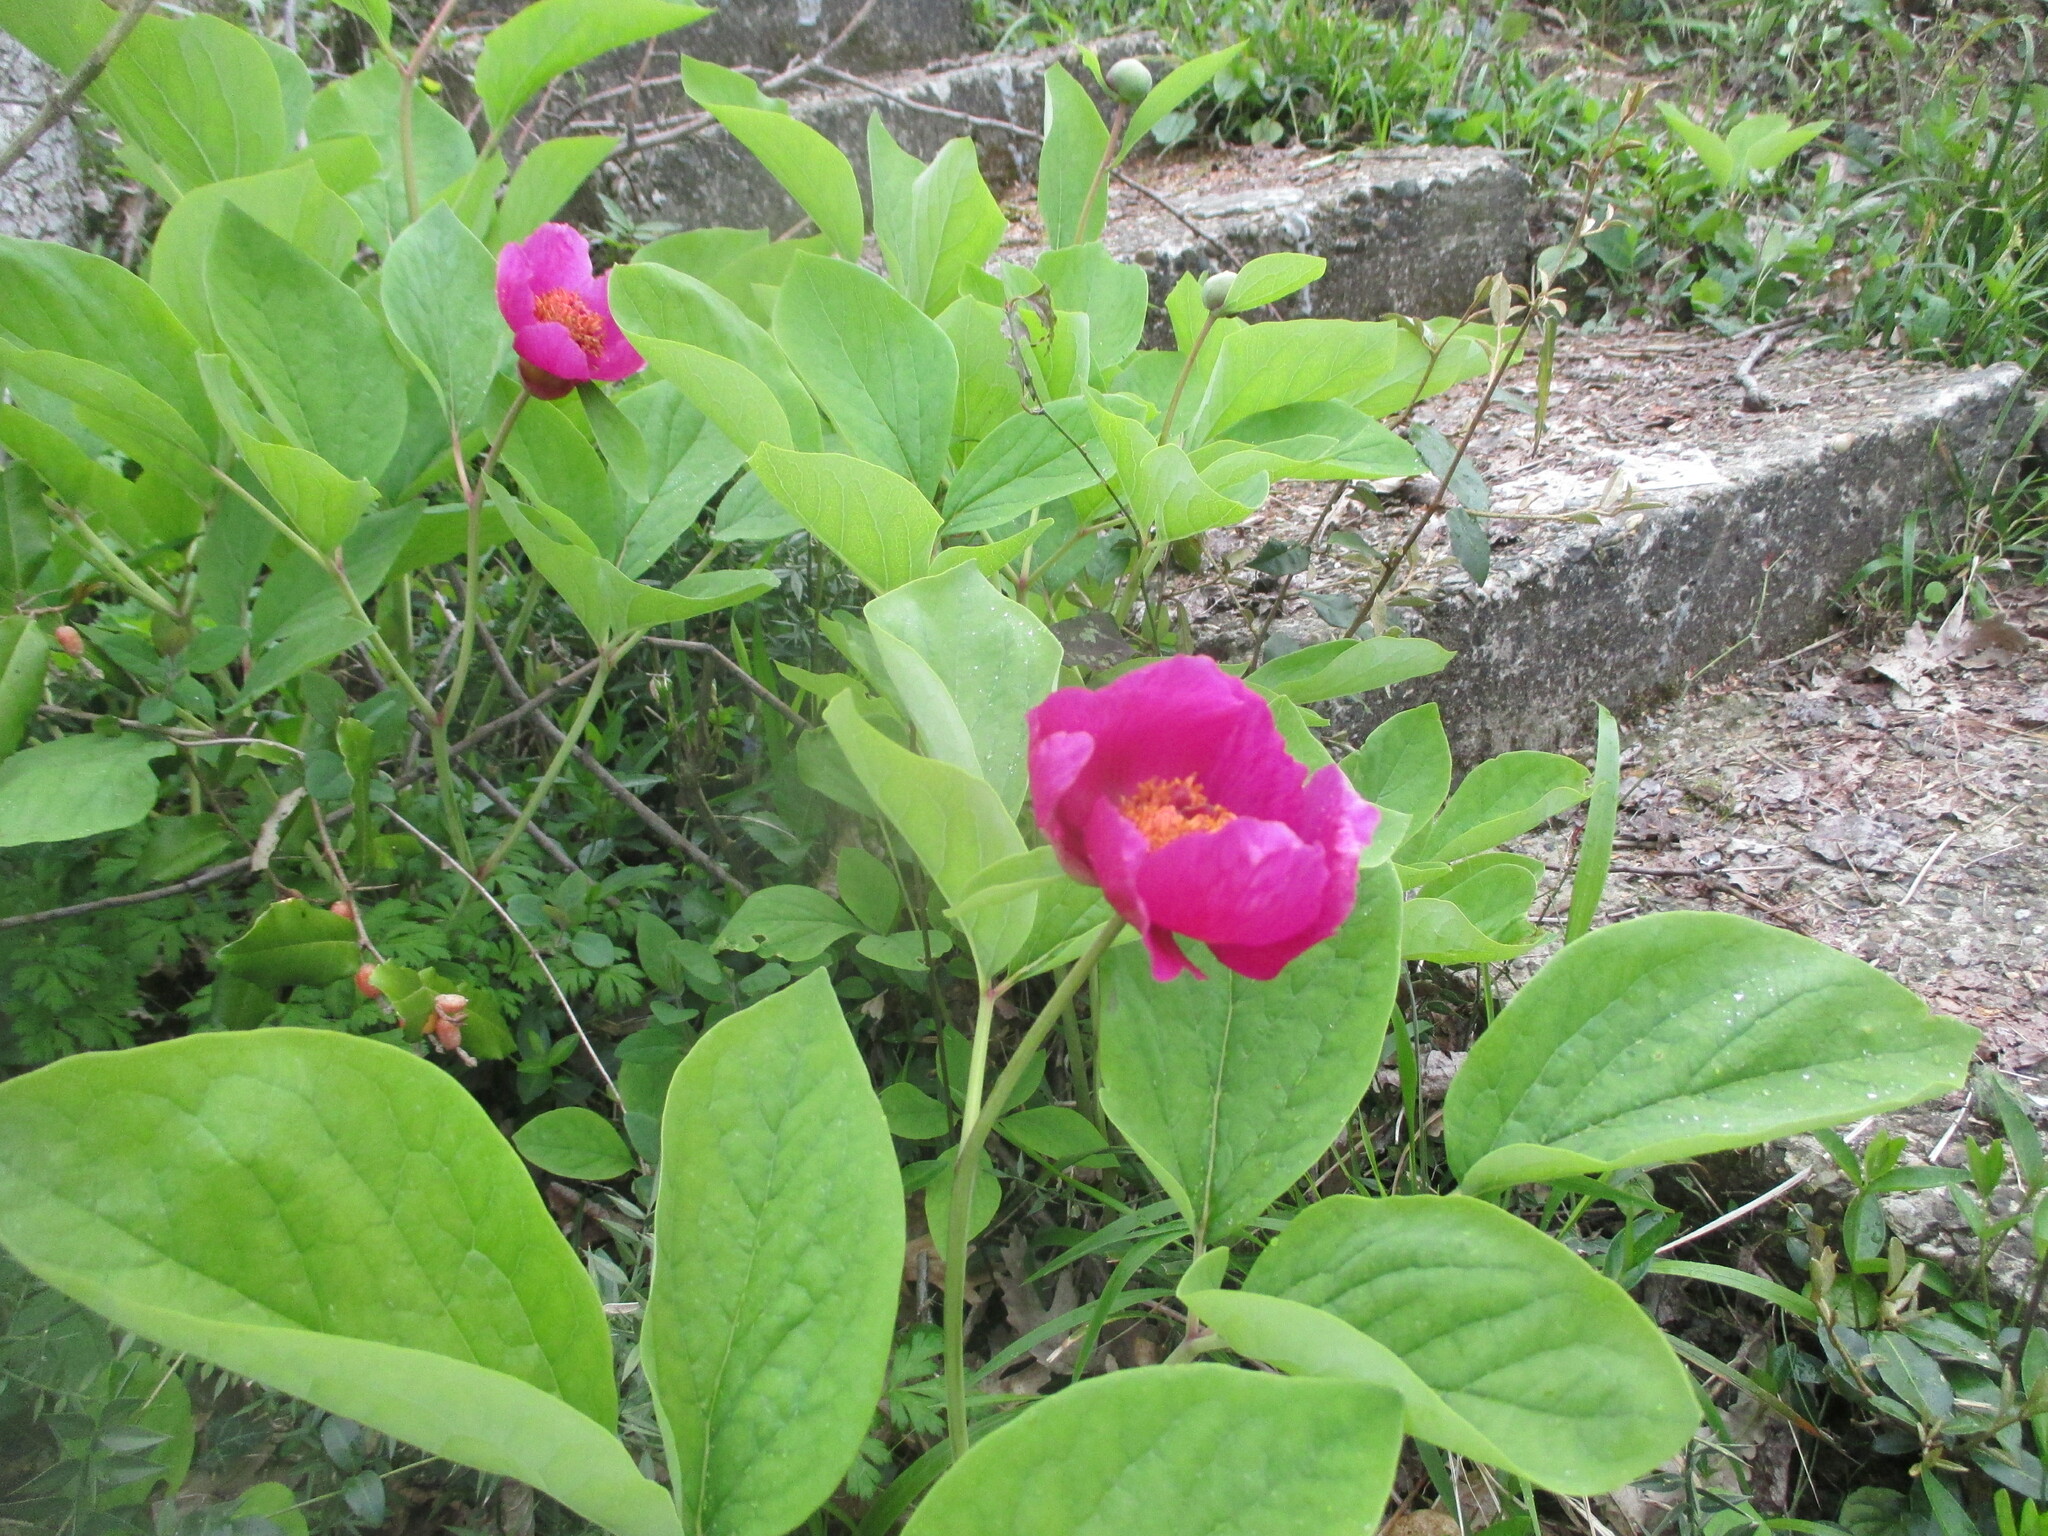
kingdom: Plantae
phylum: Tracheophyta
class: Magnoliopsida
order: Saxifragales
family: Paeoniaceae
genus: Paeonia
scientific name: Paeonia caucasica
